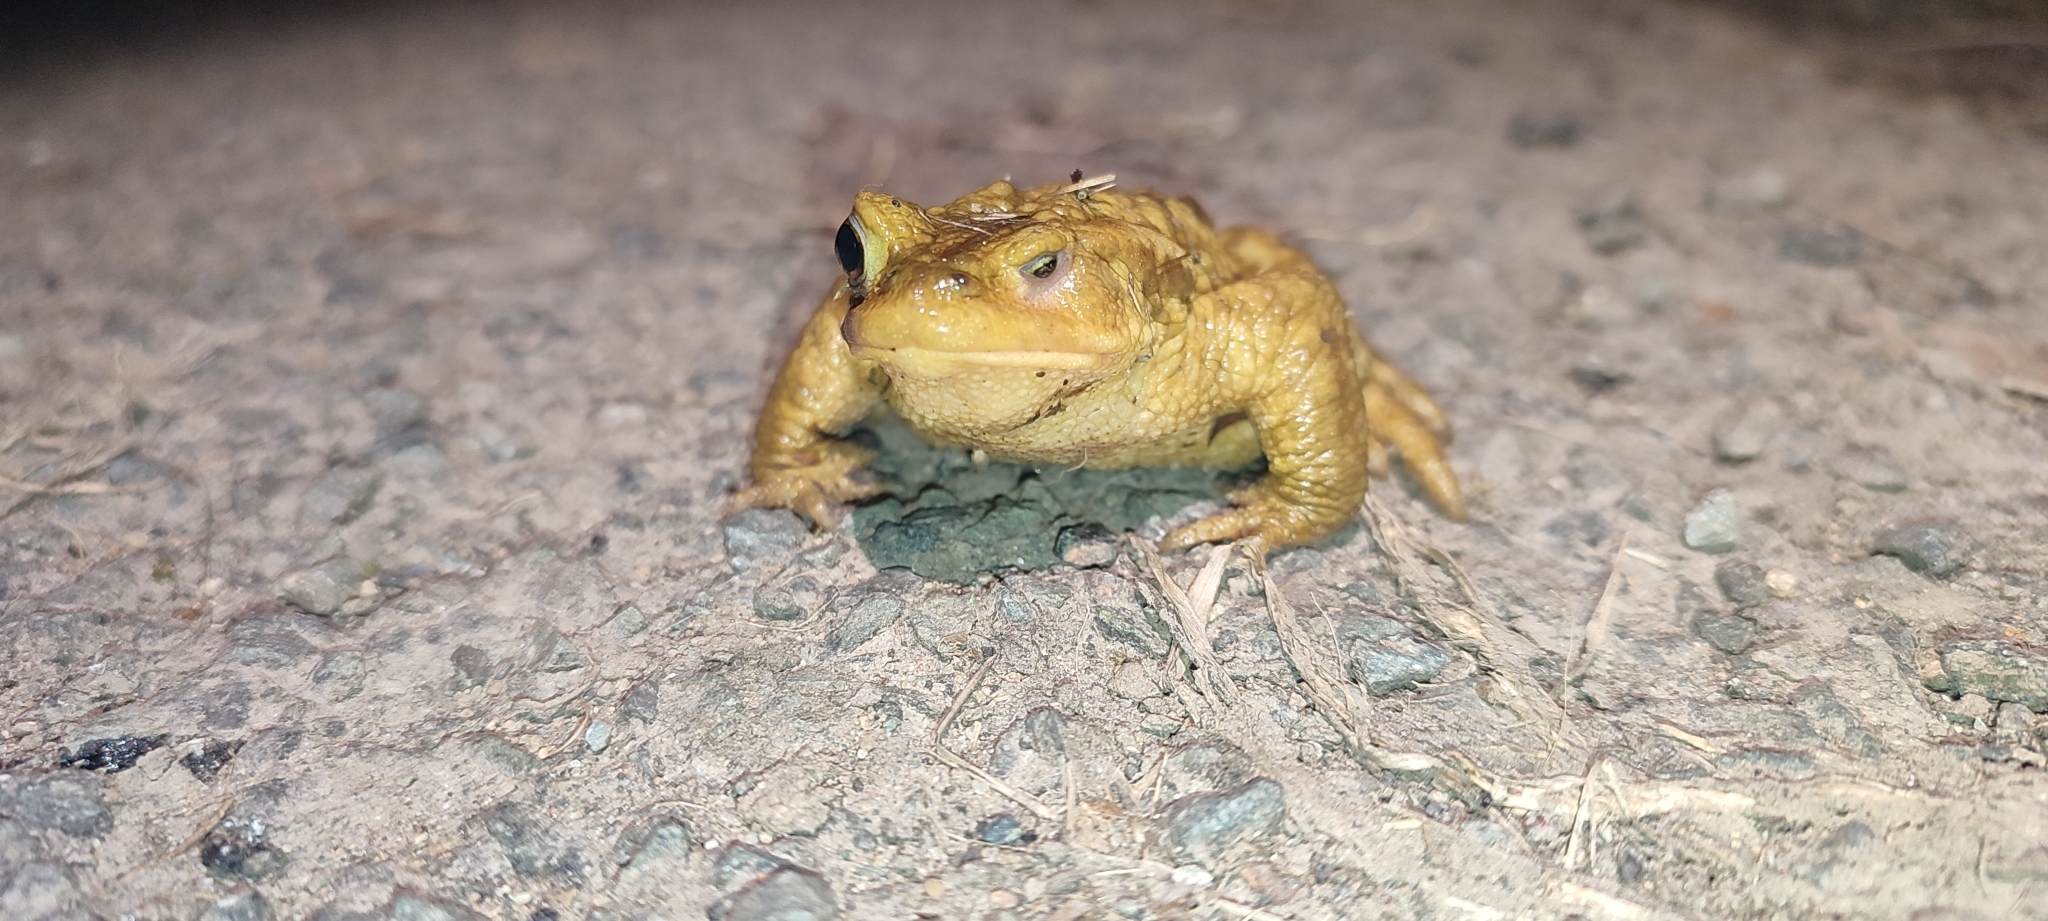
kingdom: Animalia
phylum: Chordata
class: Amphibia
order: Anura
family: Bufonidae
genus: Bufo
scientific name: Bufo spinosus
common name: Western common toad
